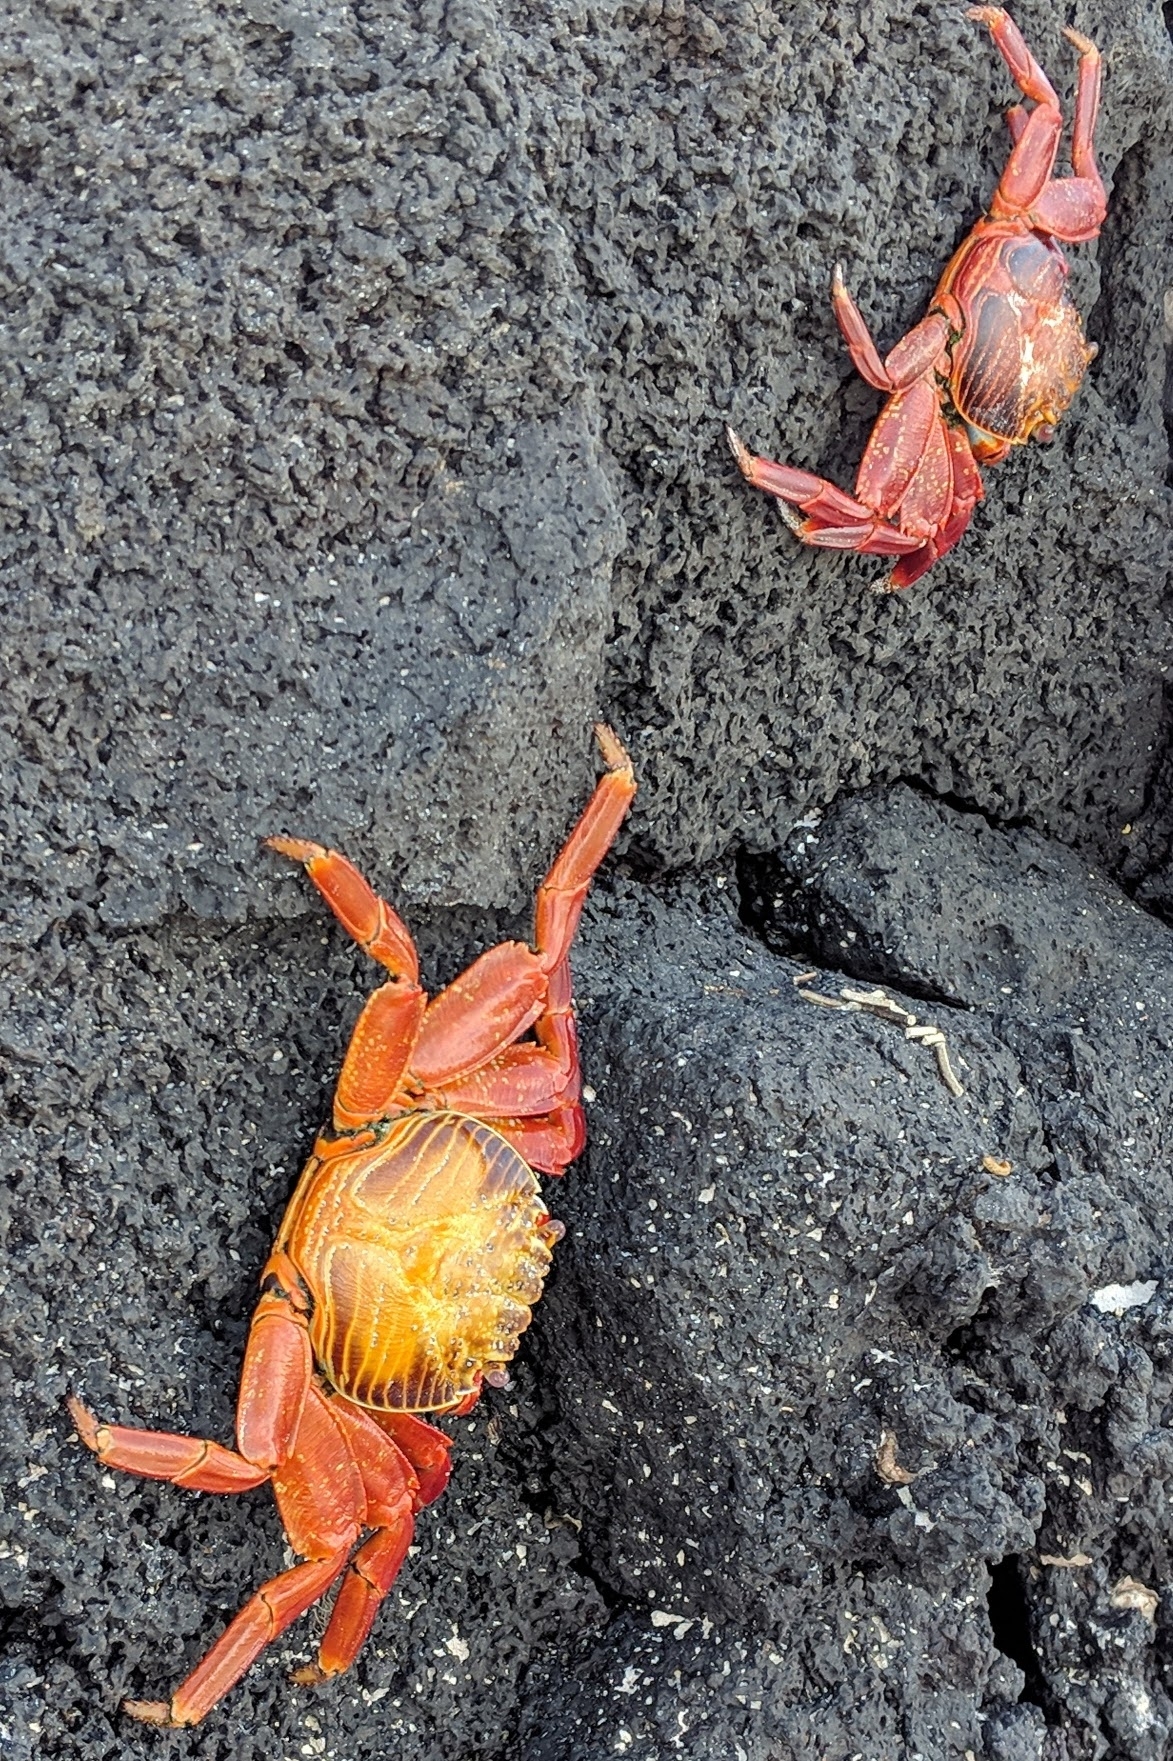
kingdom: Animalia
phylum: Arthropoda
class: Malacostraca
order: Decapoda
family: Grapsidae
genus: Grapsus
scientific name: Grapsus grapsus
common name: Sally lightfoot
